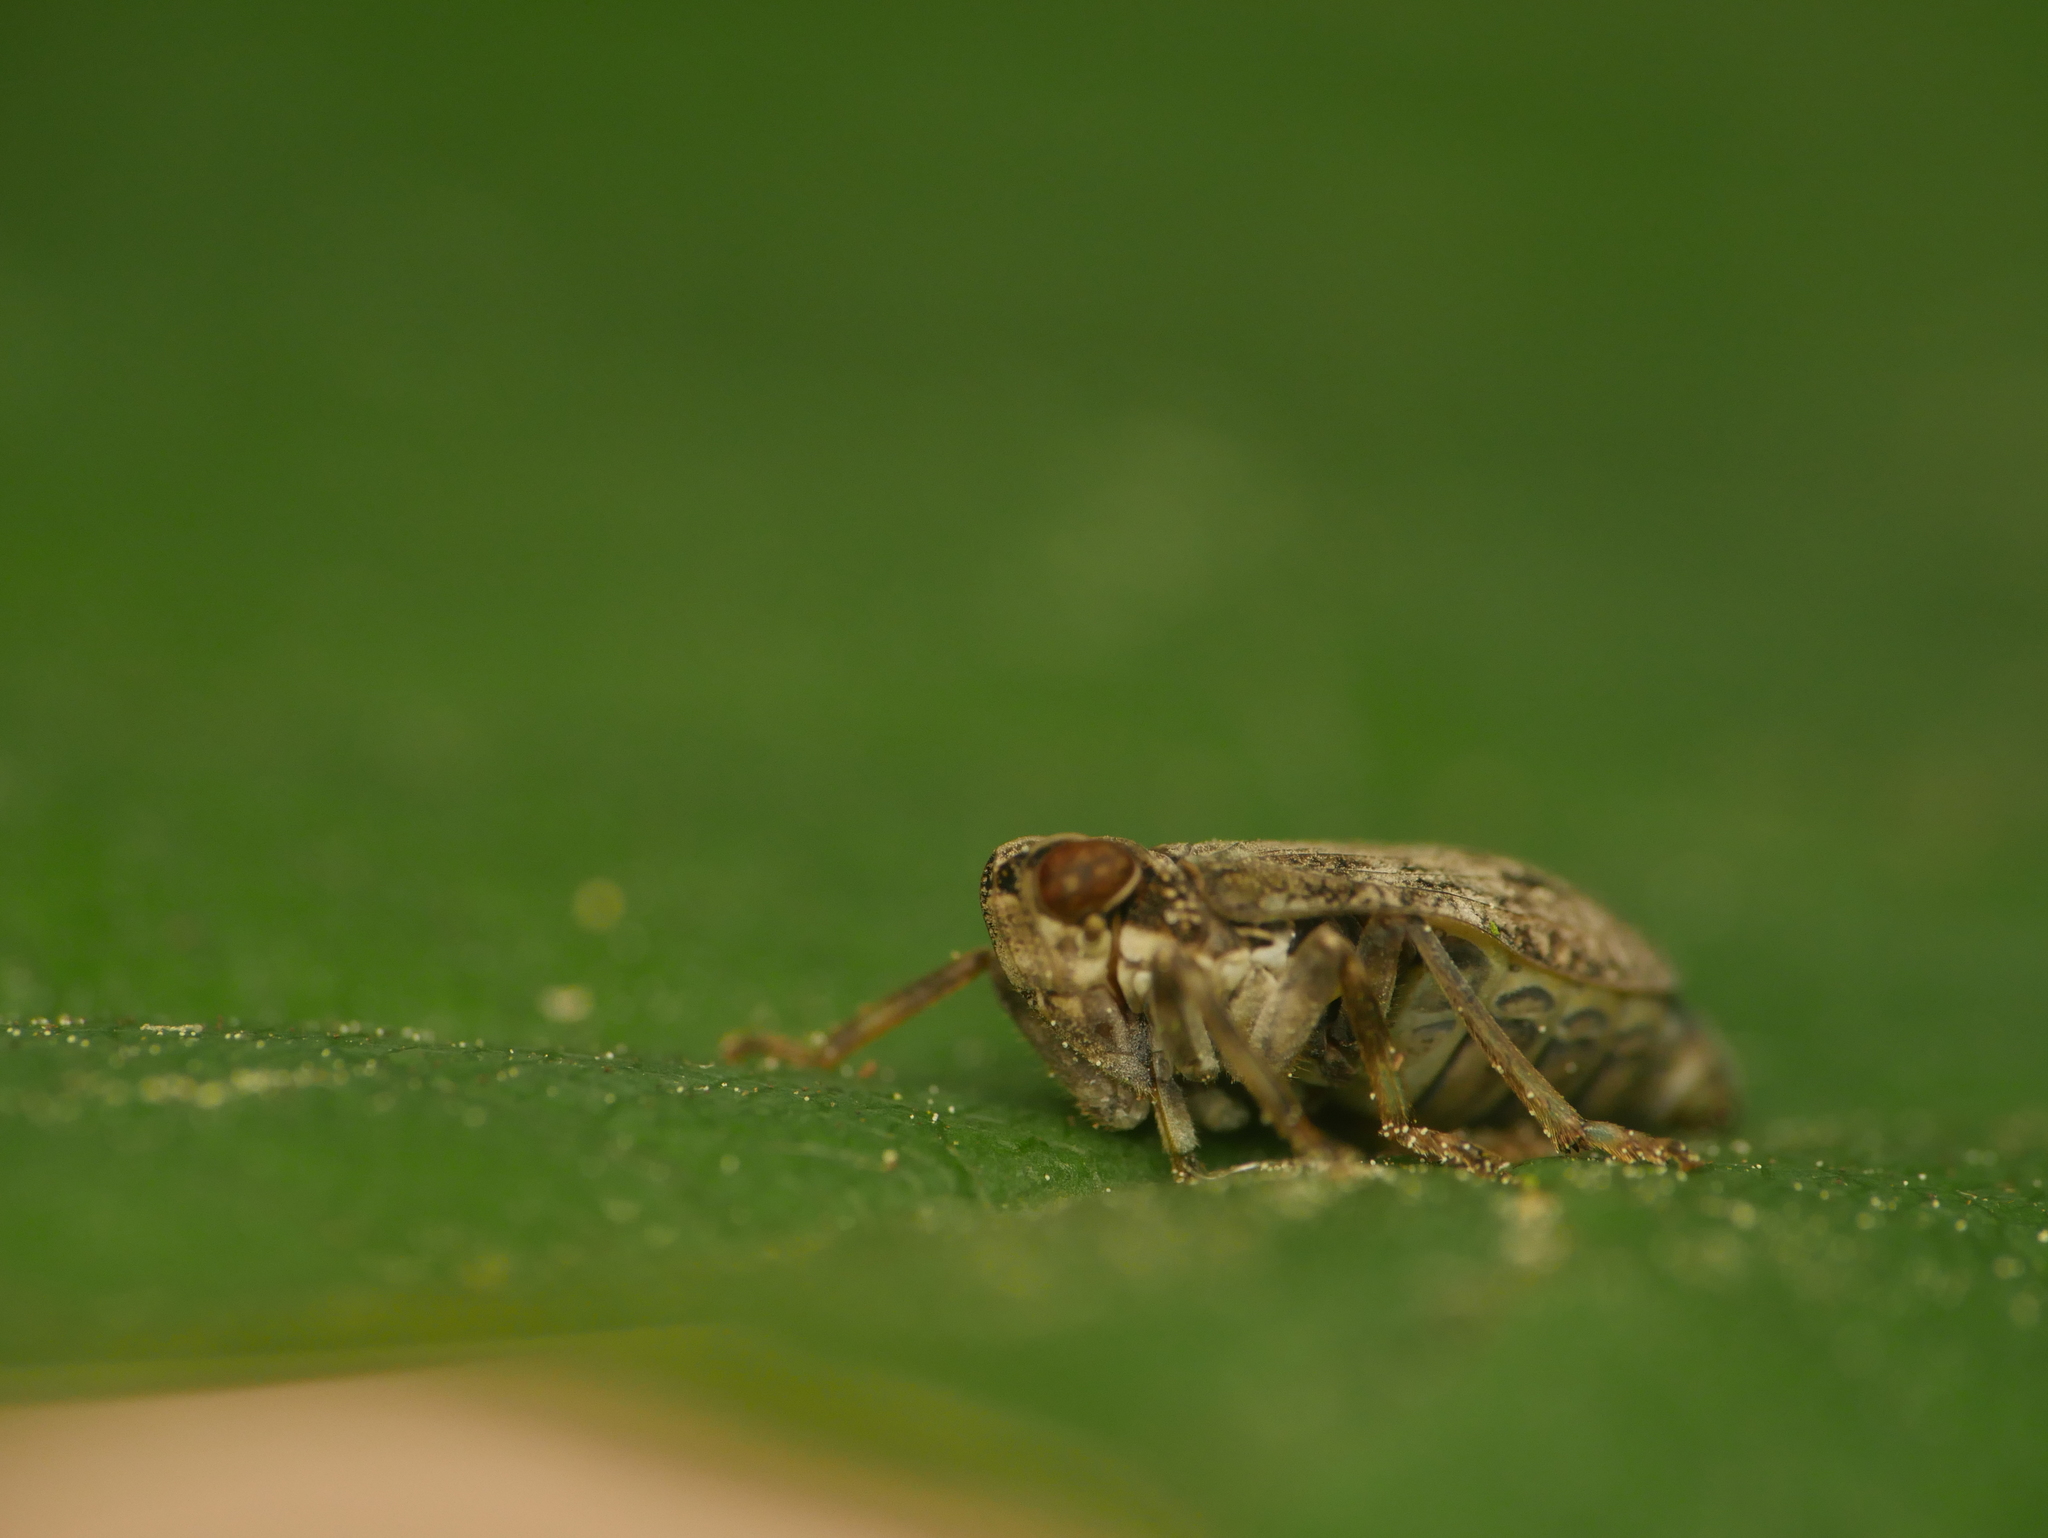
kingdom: Animalia
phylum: Arthropoda
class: Insecta
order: Hemiptera
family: Issidae
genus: Issus
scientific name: Issus coleoptratus
